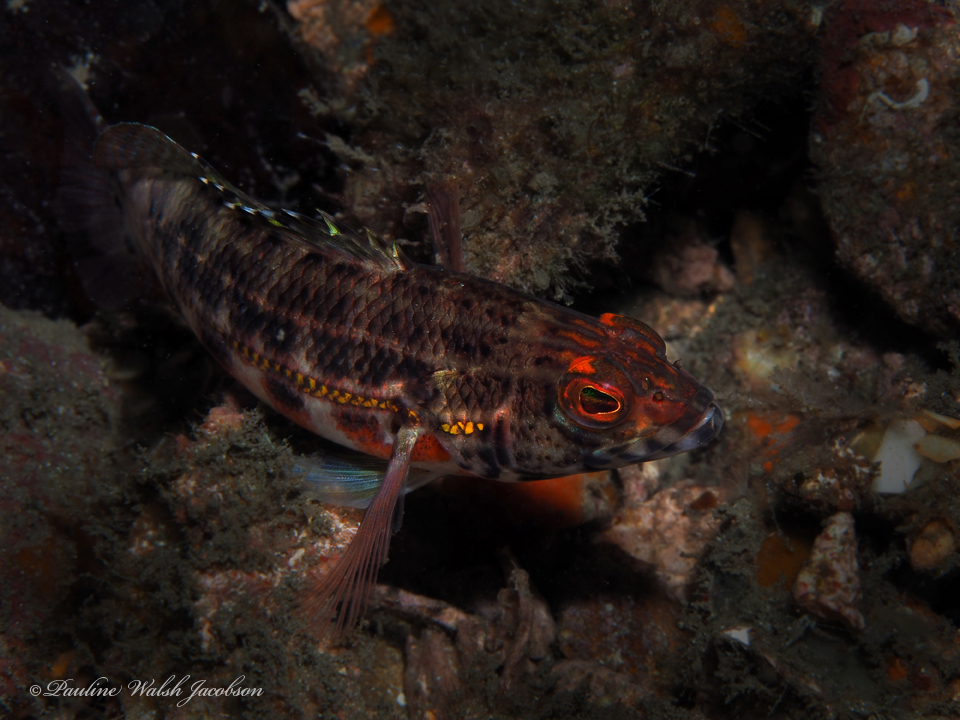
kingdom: Animalia
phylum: Chordata
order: Perciformes
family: Serranidae
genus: Serranus
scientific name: Serranus baldwini
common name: Lantern bass
